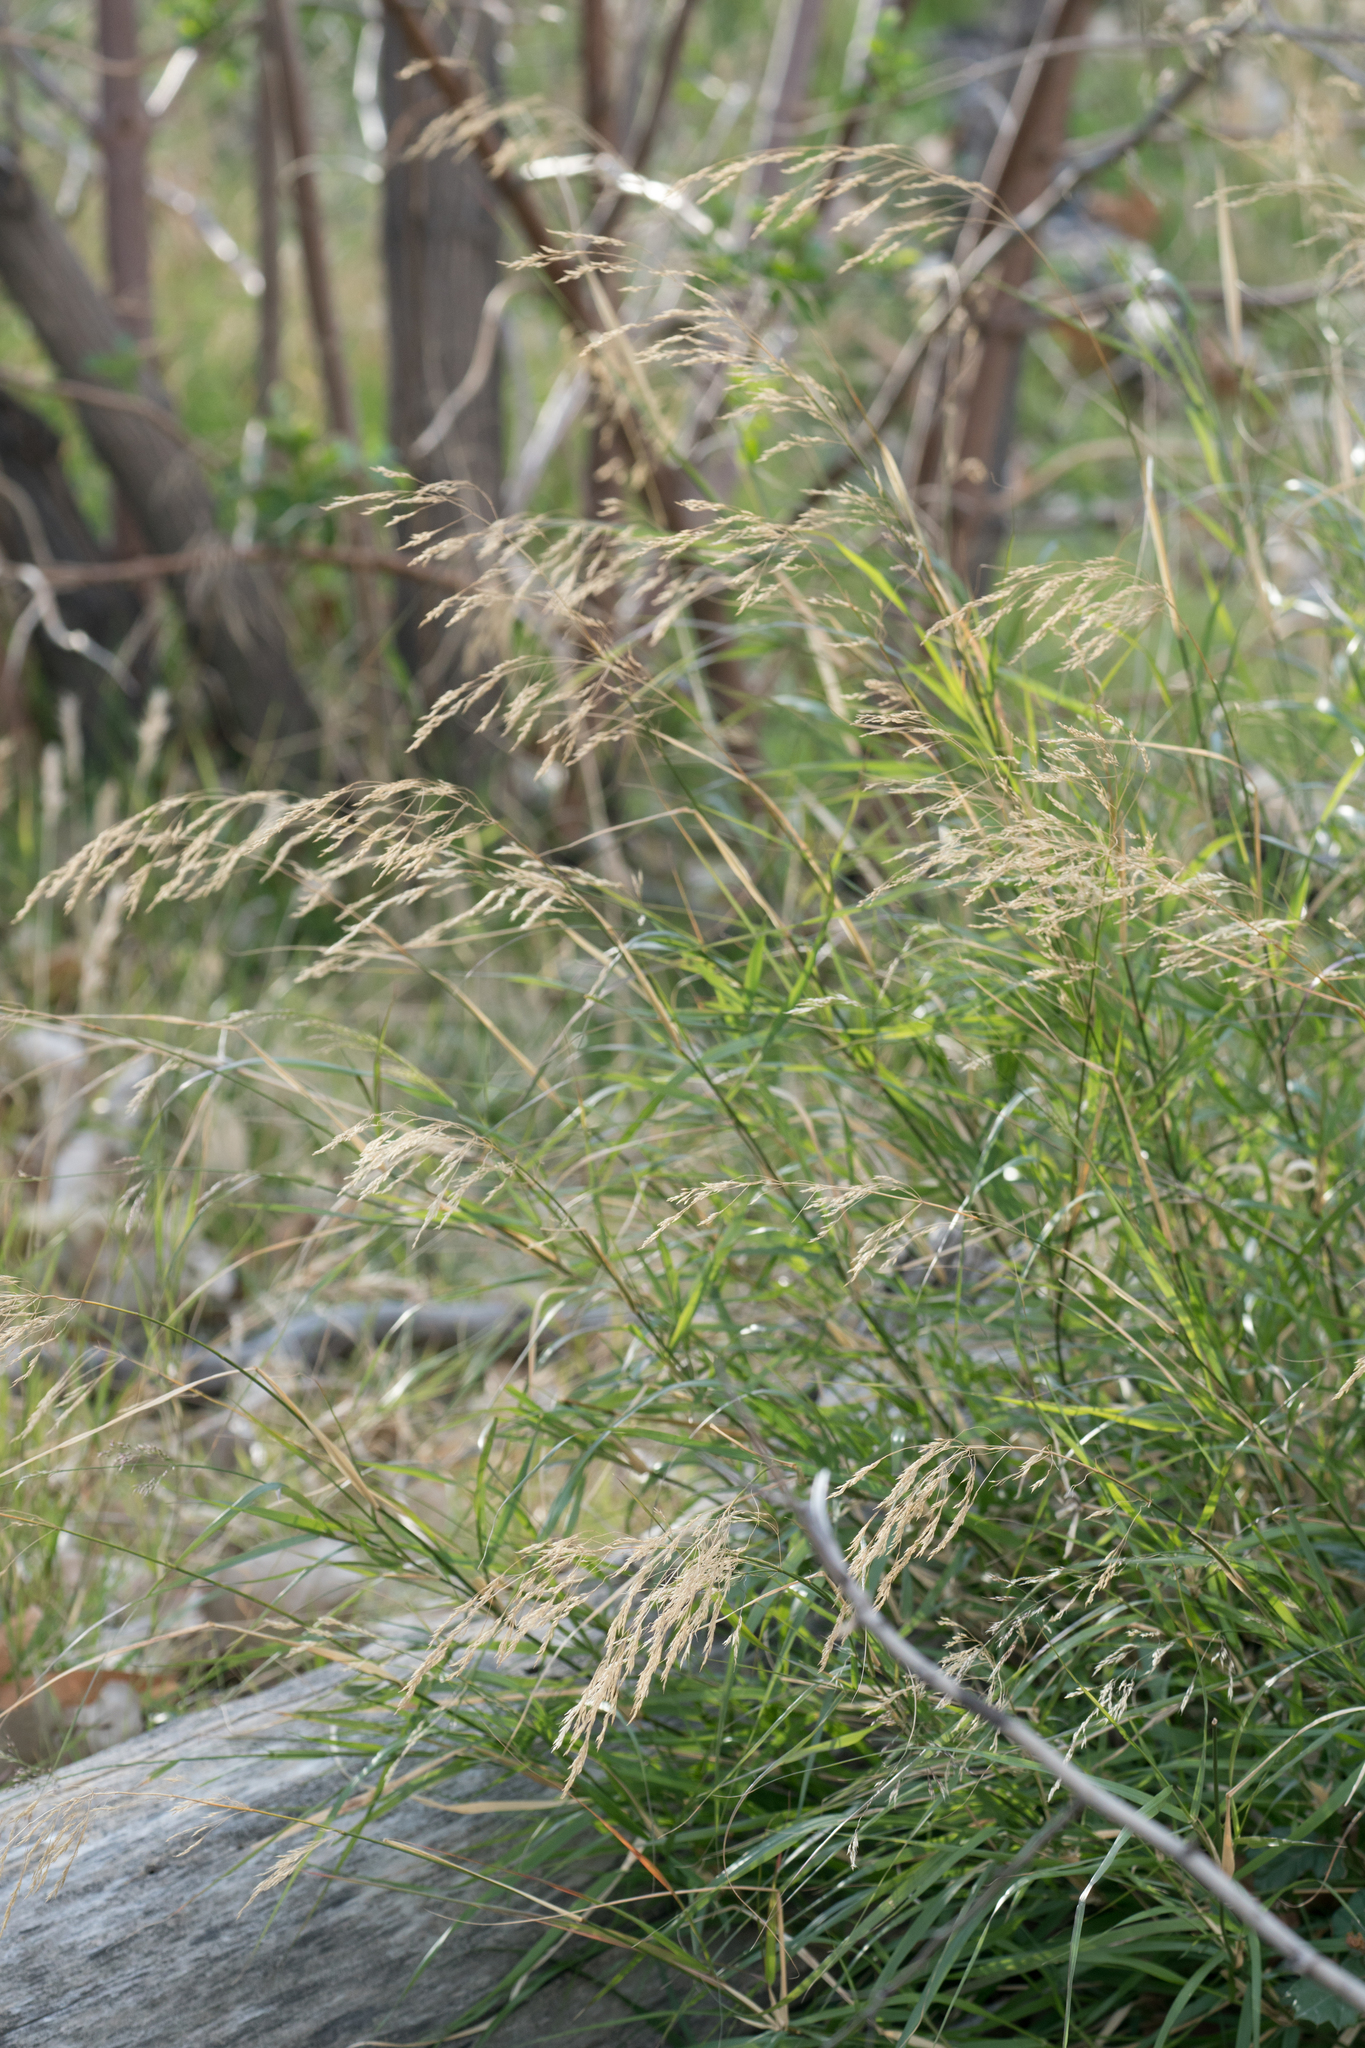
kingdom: Plantae
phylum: Tracheophyta
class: Liliopsida
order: Poales
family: Poaceae
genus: Oloptum
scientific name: Oloptum miliaceum
